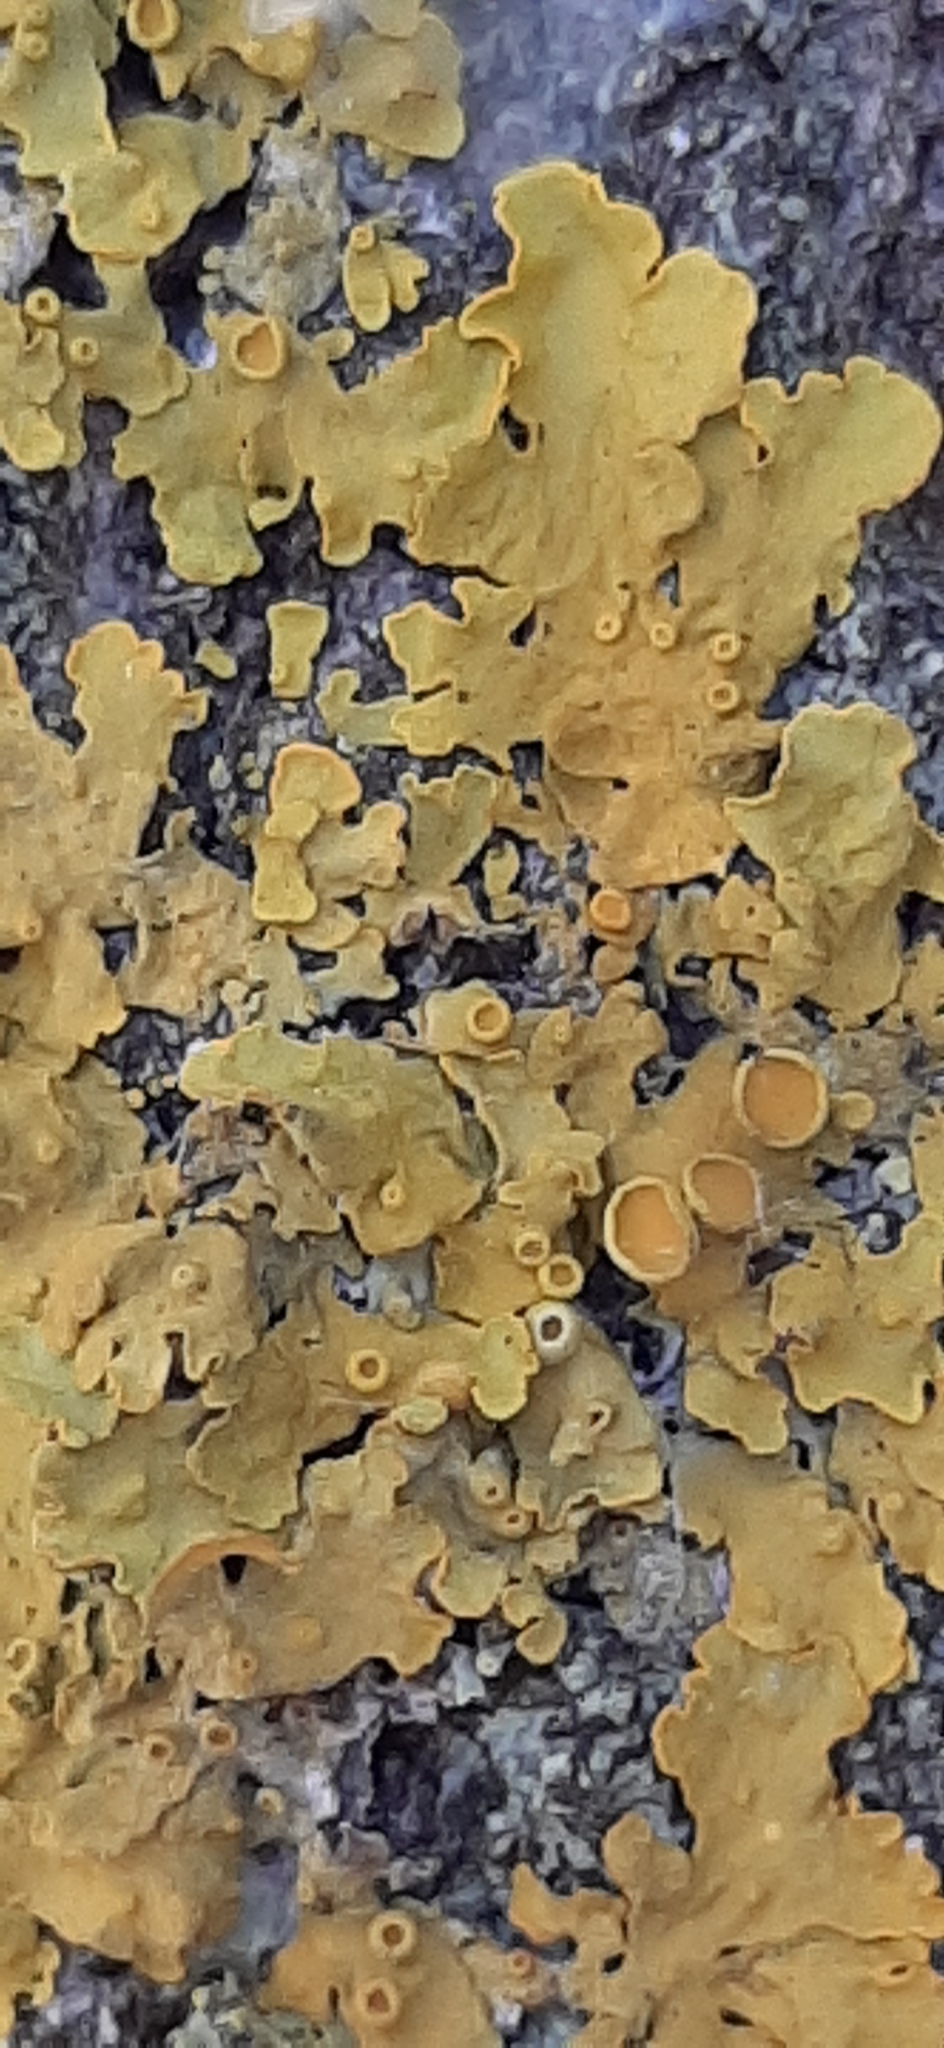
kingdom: Fungi
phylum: Ascomycota
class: Lecanoromycetes
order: Teloschistales
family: Teloschistaceae
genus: Xanthoria
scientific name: Xanthoria parietina
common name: Common orange lichen
